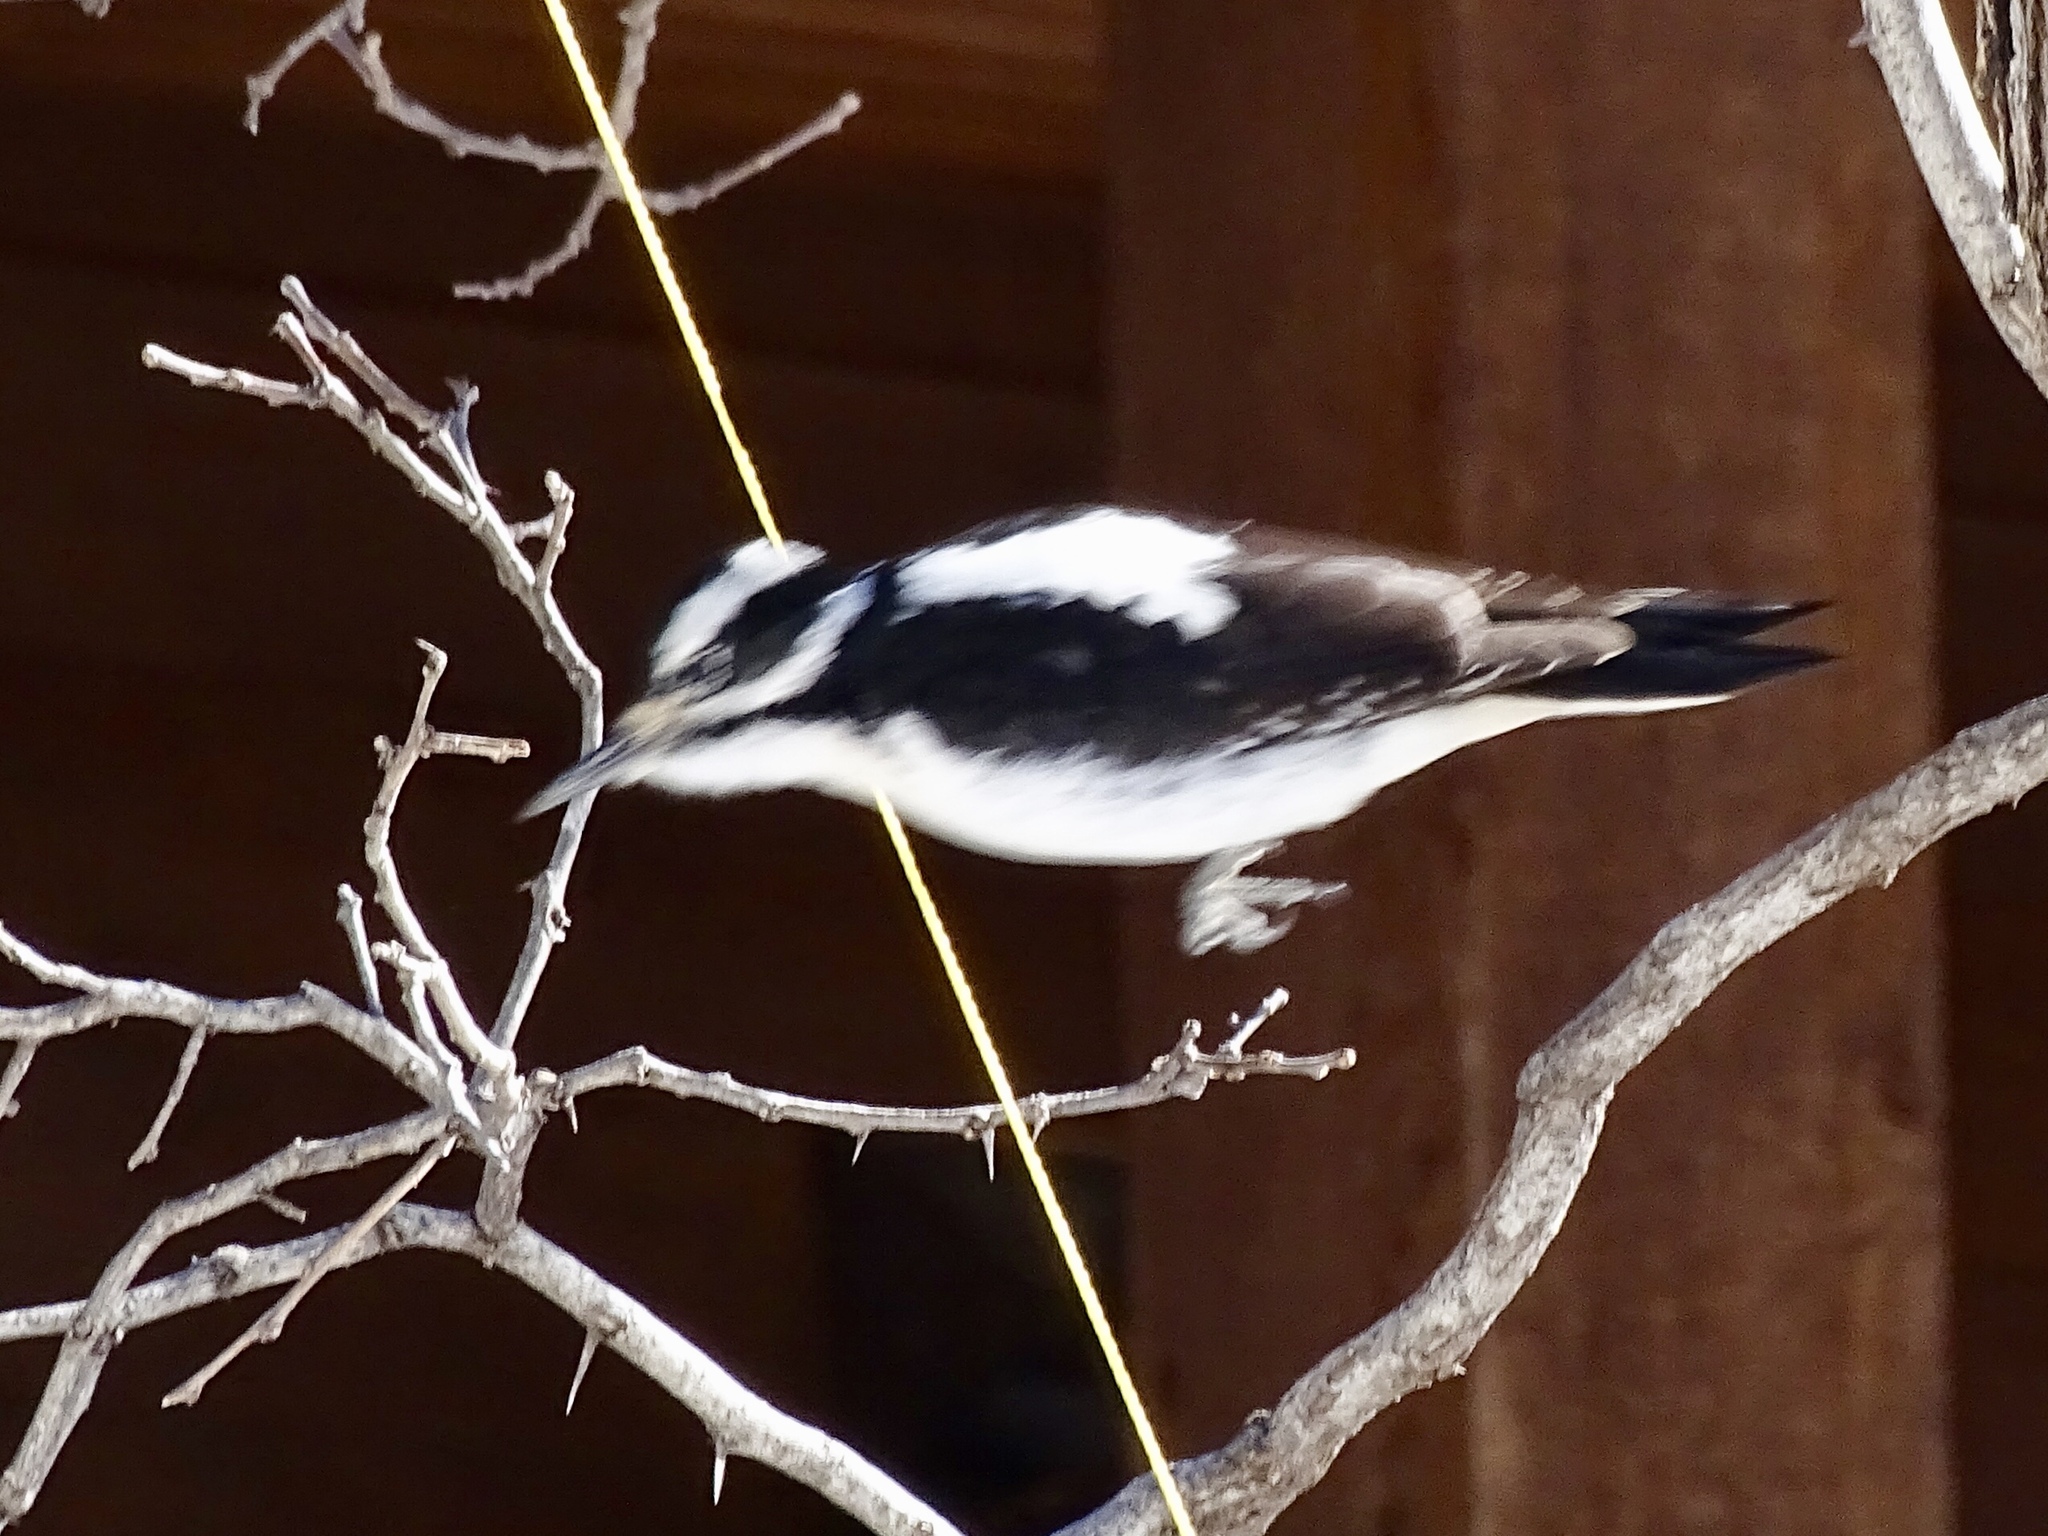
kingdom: Animalia
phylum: Chordata
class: Aves
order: Piciformes
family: Picidae
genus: Leuconotopicus
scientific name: Leuconotopicus villosus
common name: Hairy woodpecker
